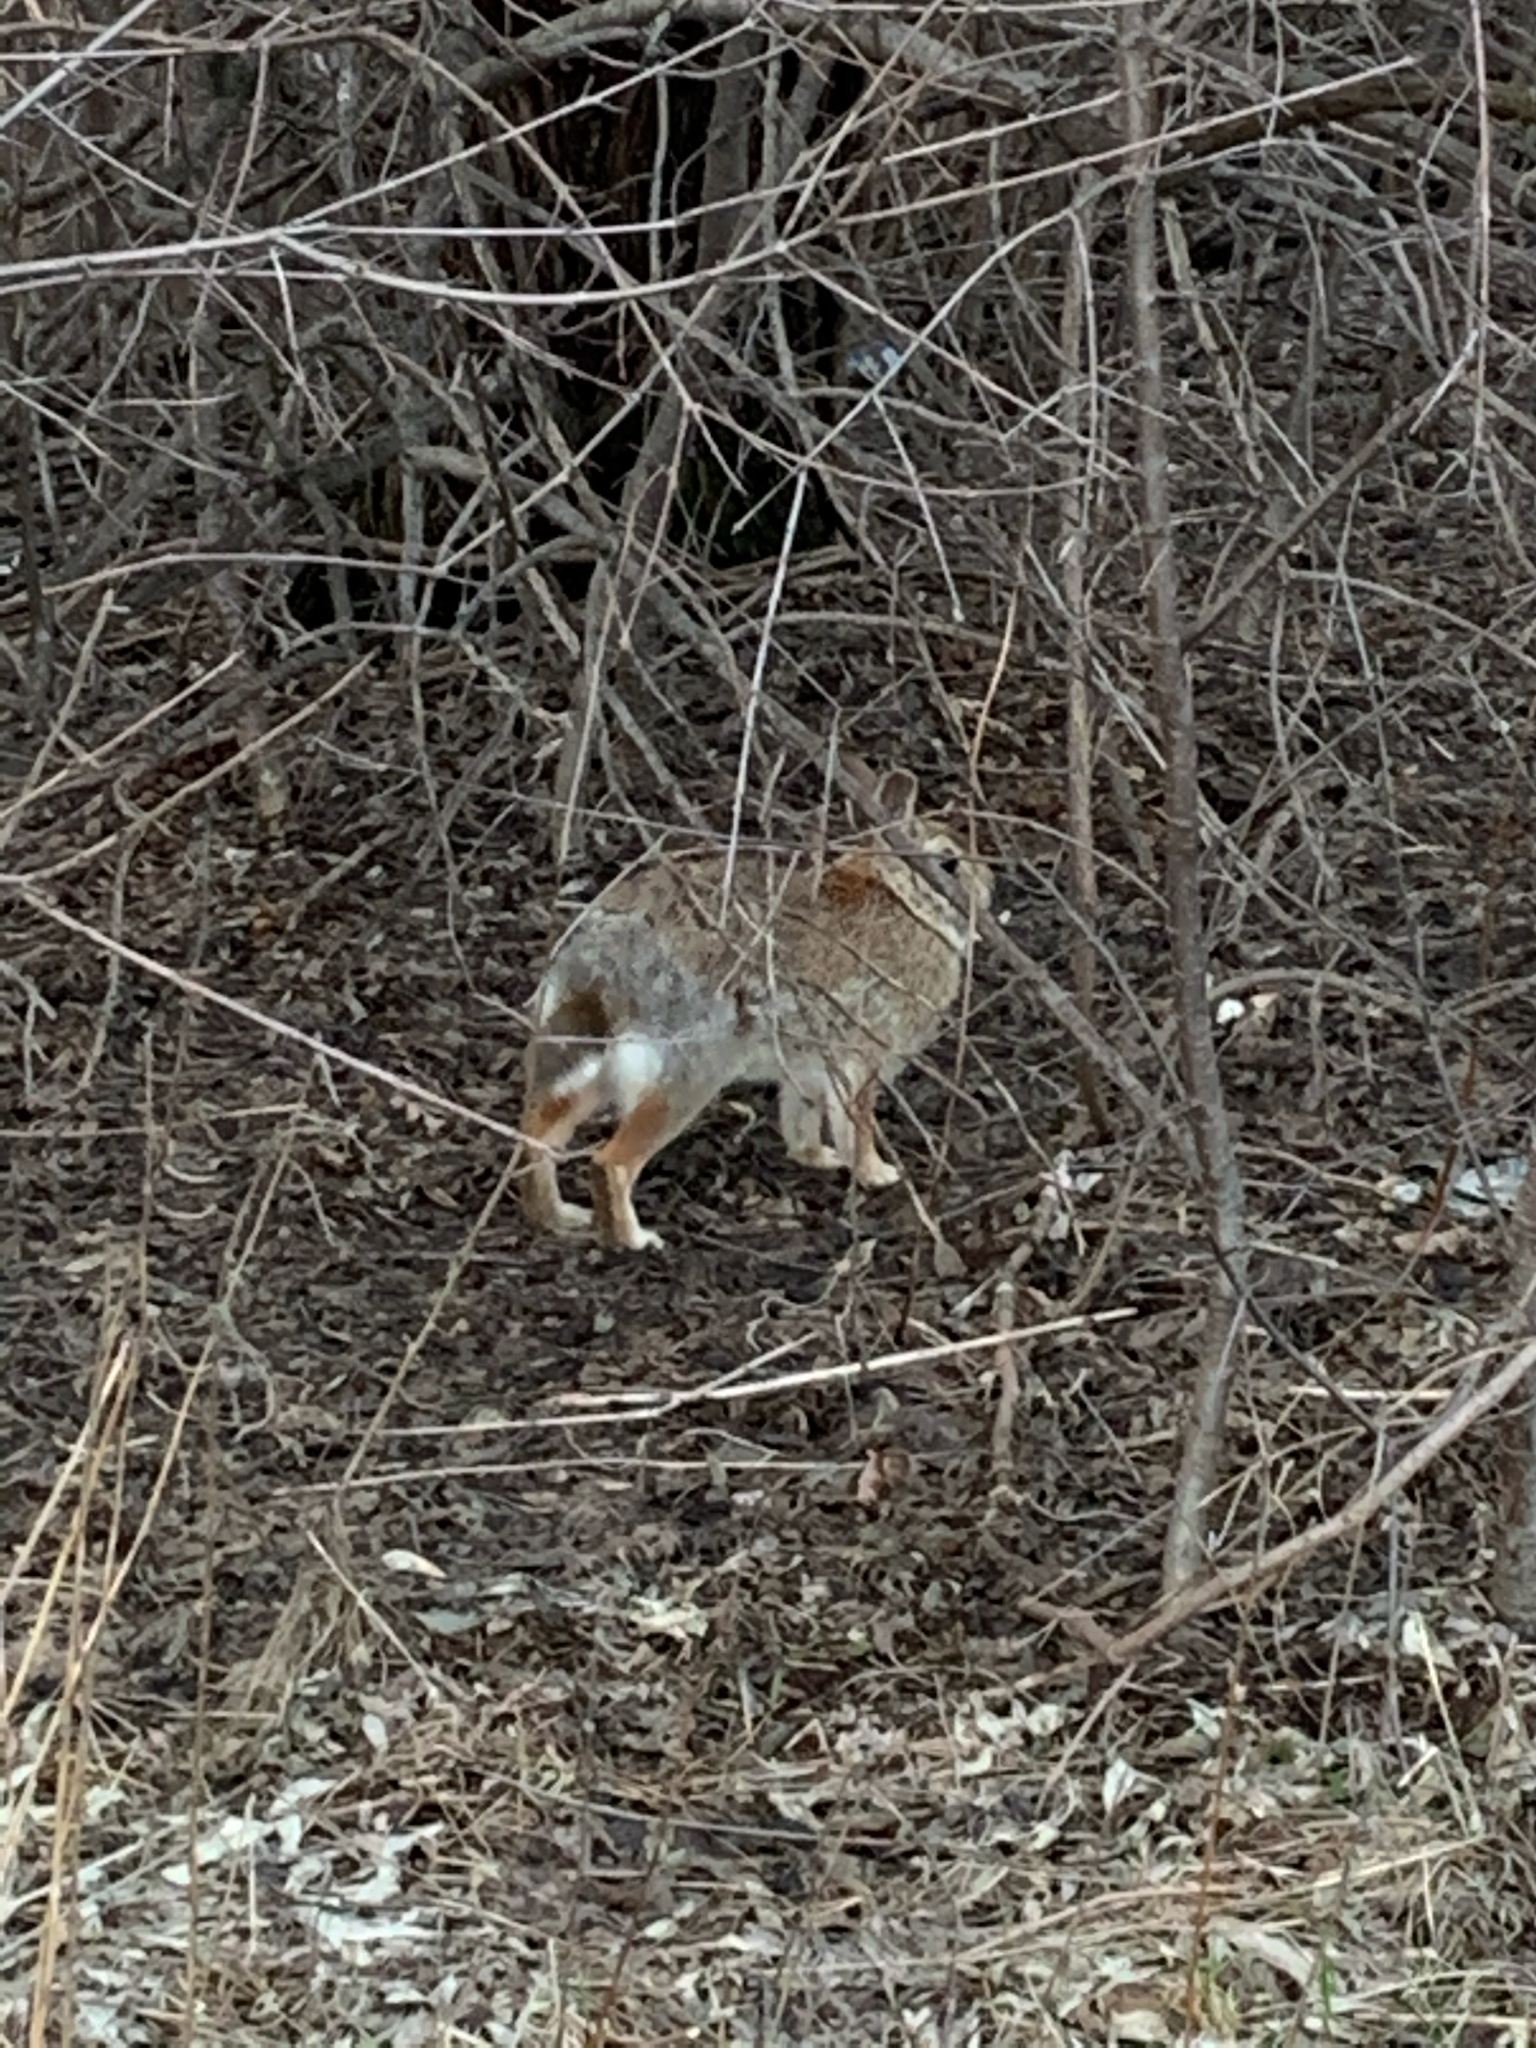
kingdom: Animalia
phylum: Chordata
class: Mammalia
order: Lagomorpha
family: Leporidae
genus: Sylvilagus
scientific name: Sylvilagus floridanus
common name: Eastern cottontail
